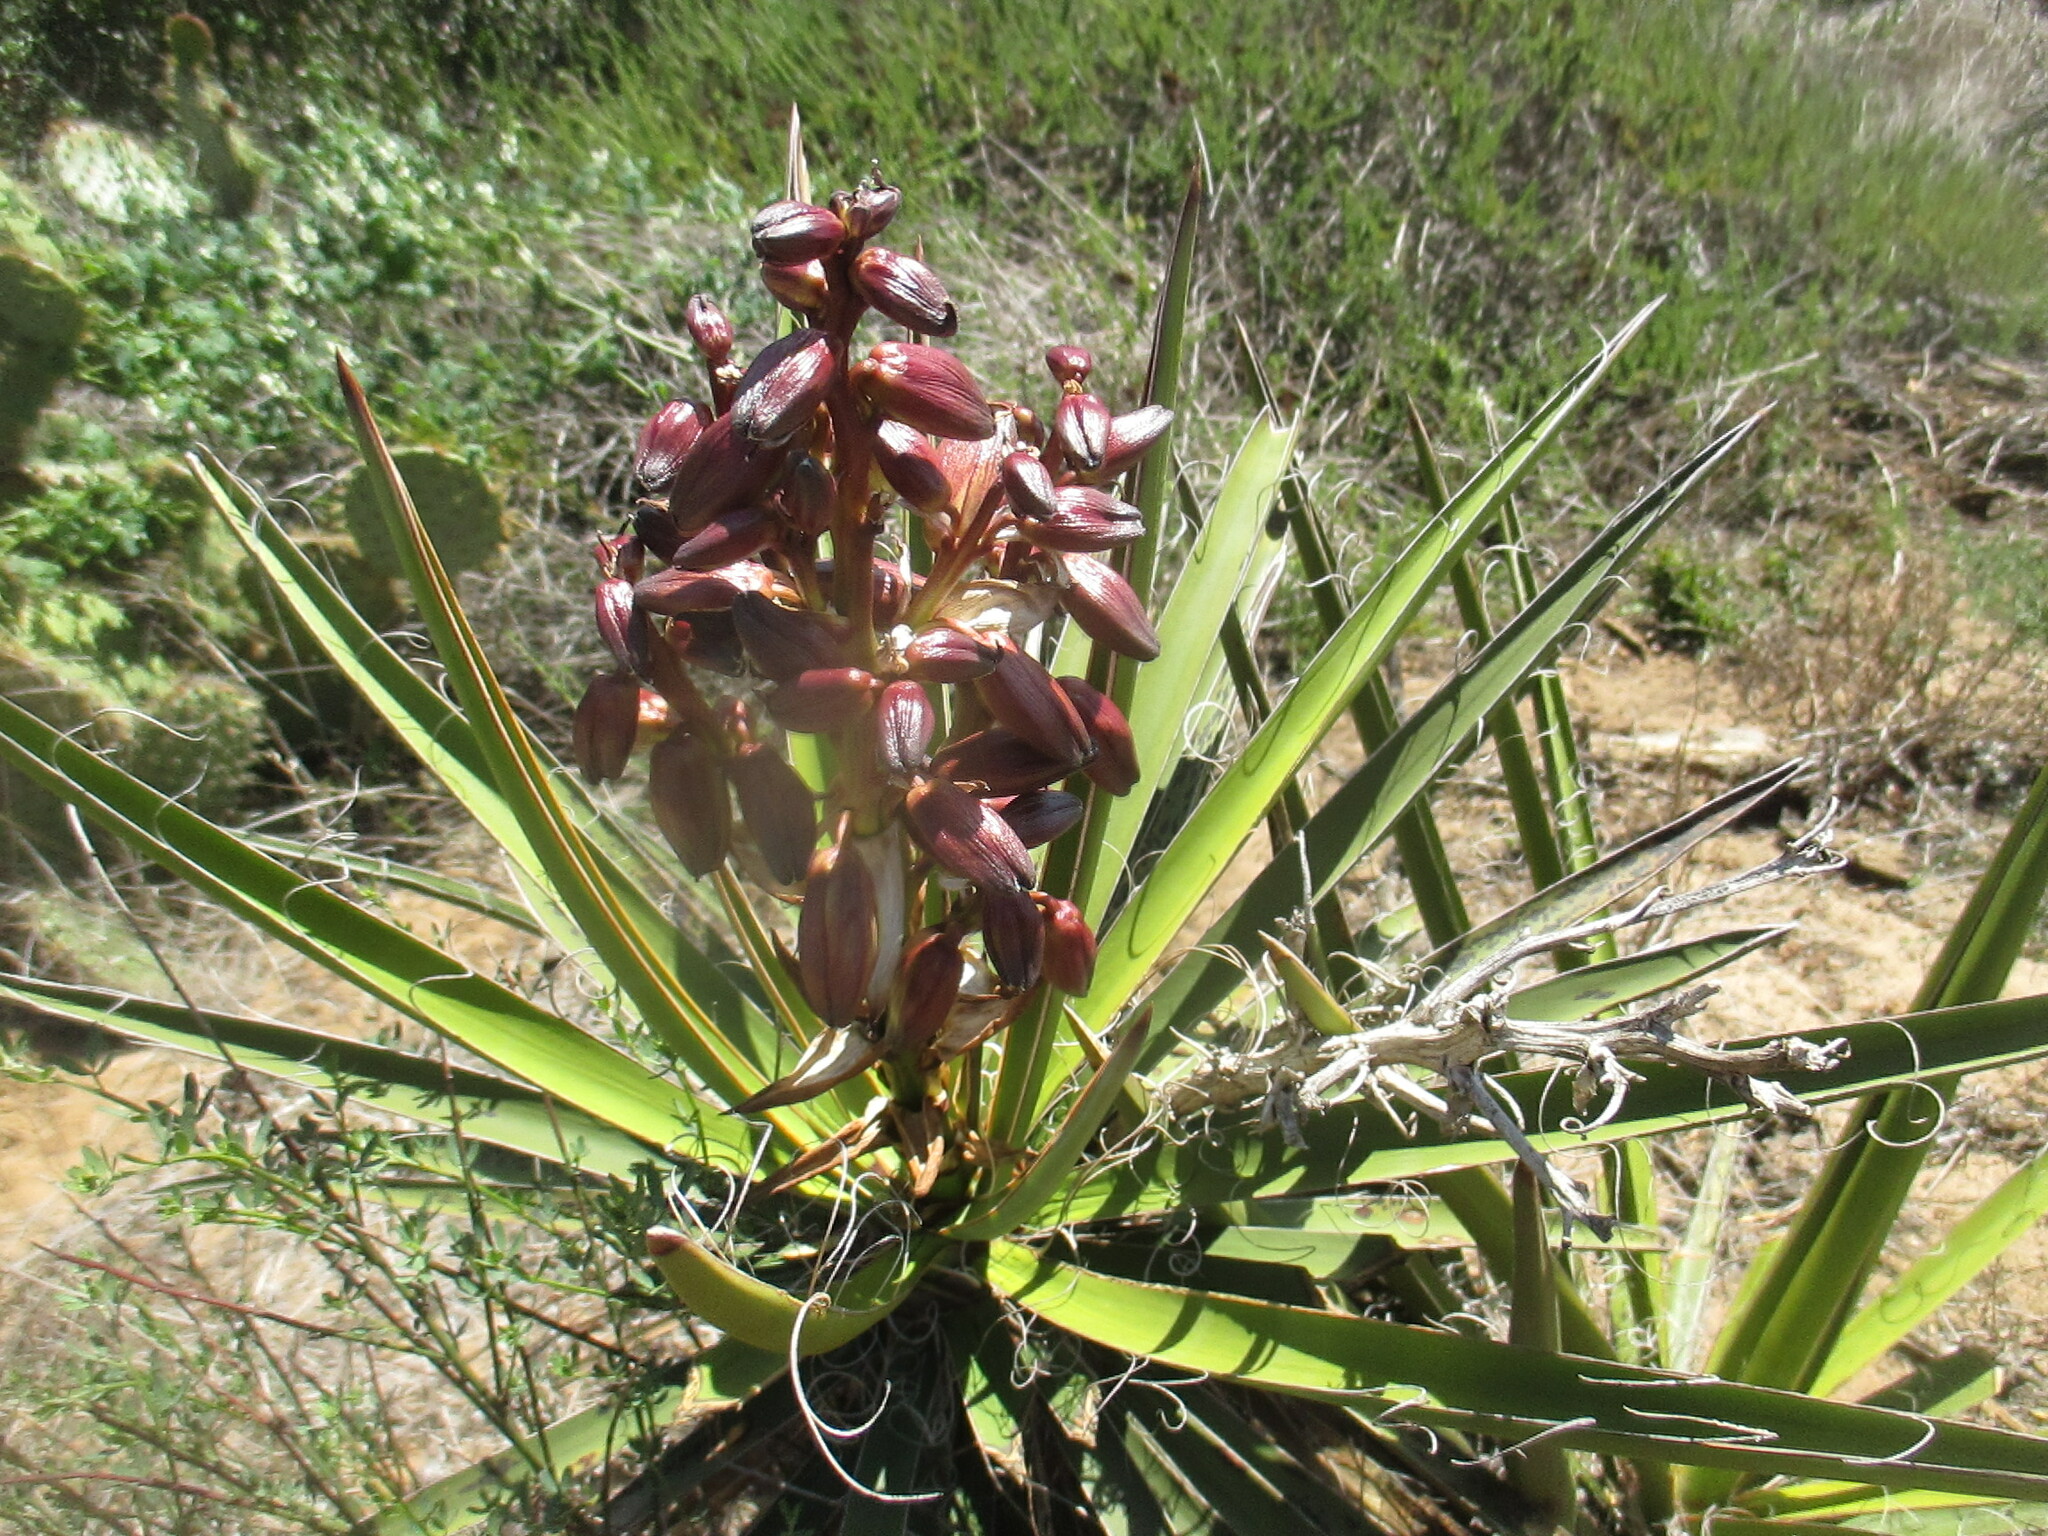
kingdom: Plantae
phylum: Tracheophyta
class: Liliopsida
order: Asparagales
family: Asparagaceae
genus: Yucca
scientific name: Yucca schidigera
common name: Mojave yucca
